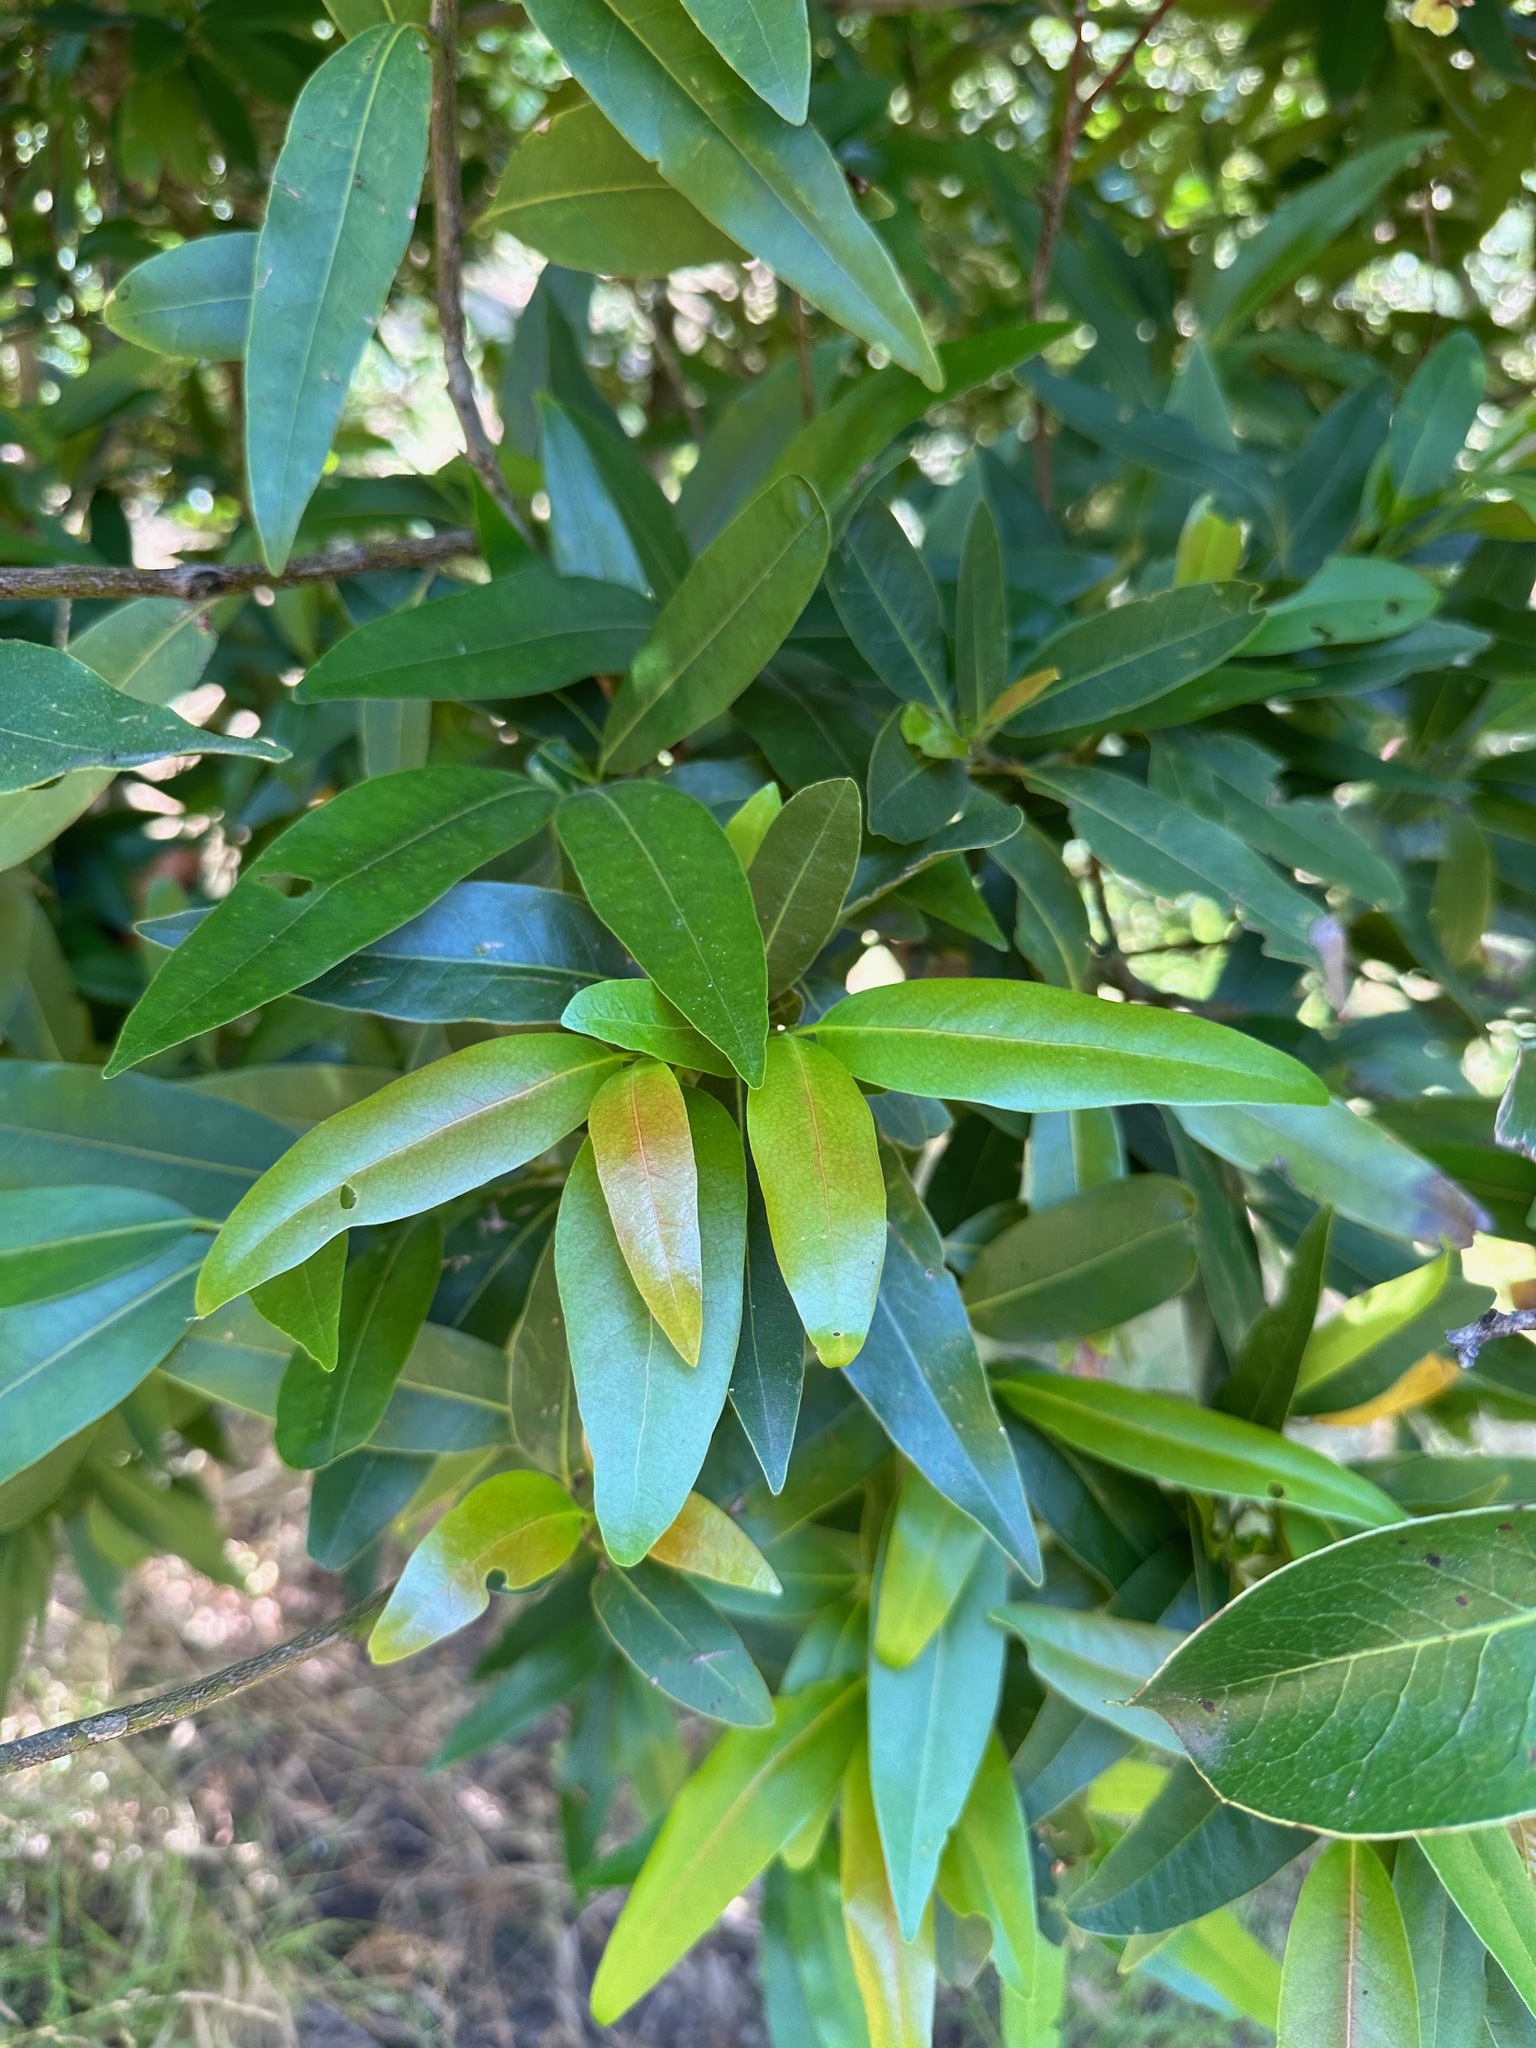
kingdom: Plantae
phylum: Tracheophyta
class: Magnoliopsida
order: Laurales
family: Lauraceae
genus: Umbellularia
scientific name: Umbellularia californica
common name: California bay
